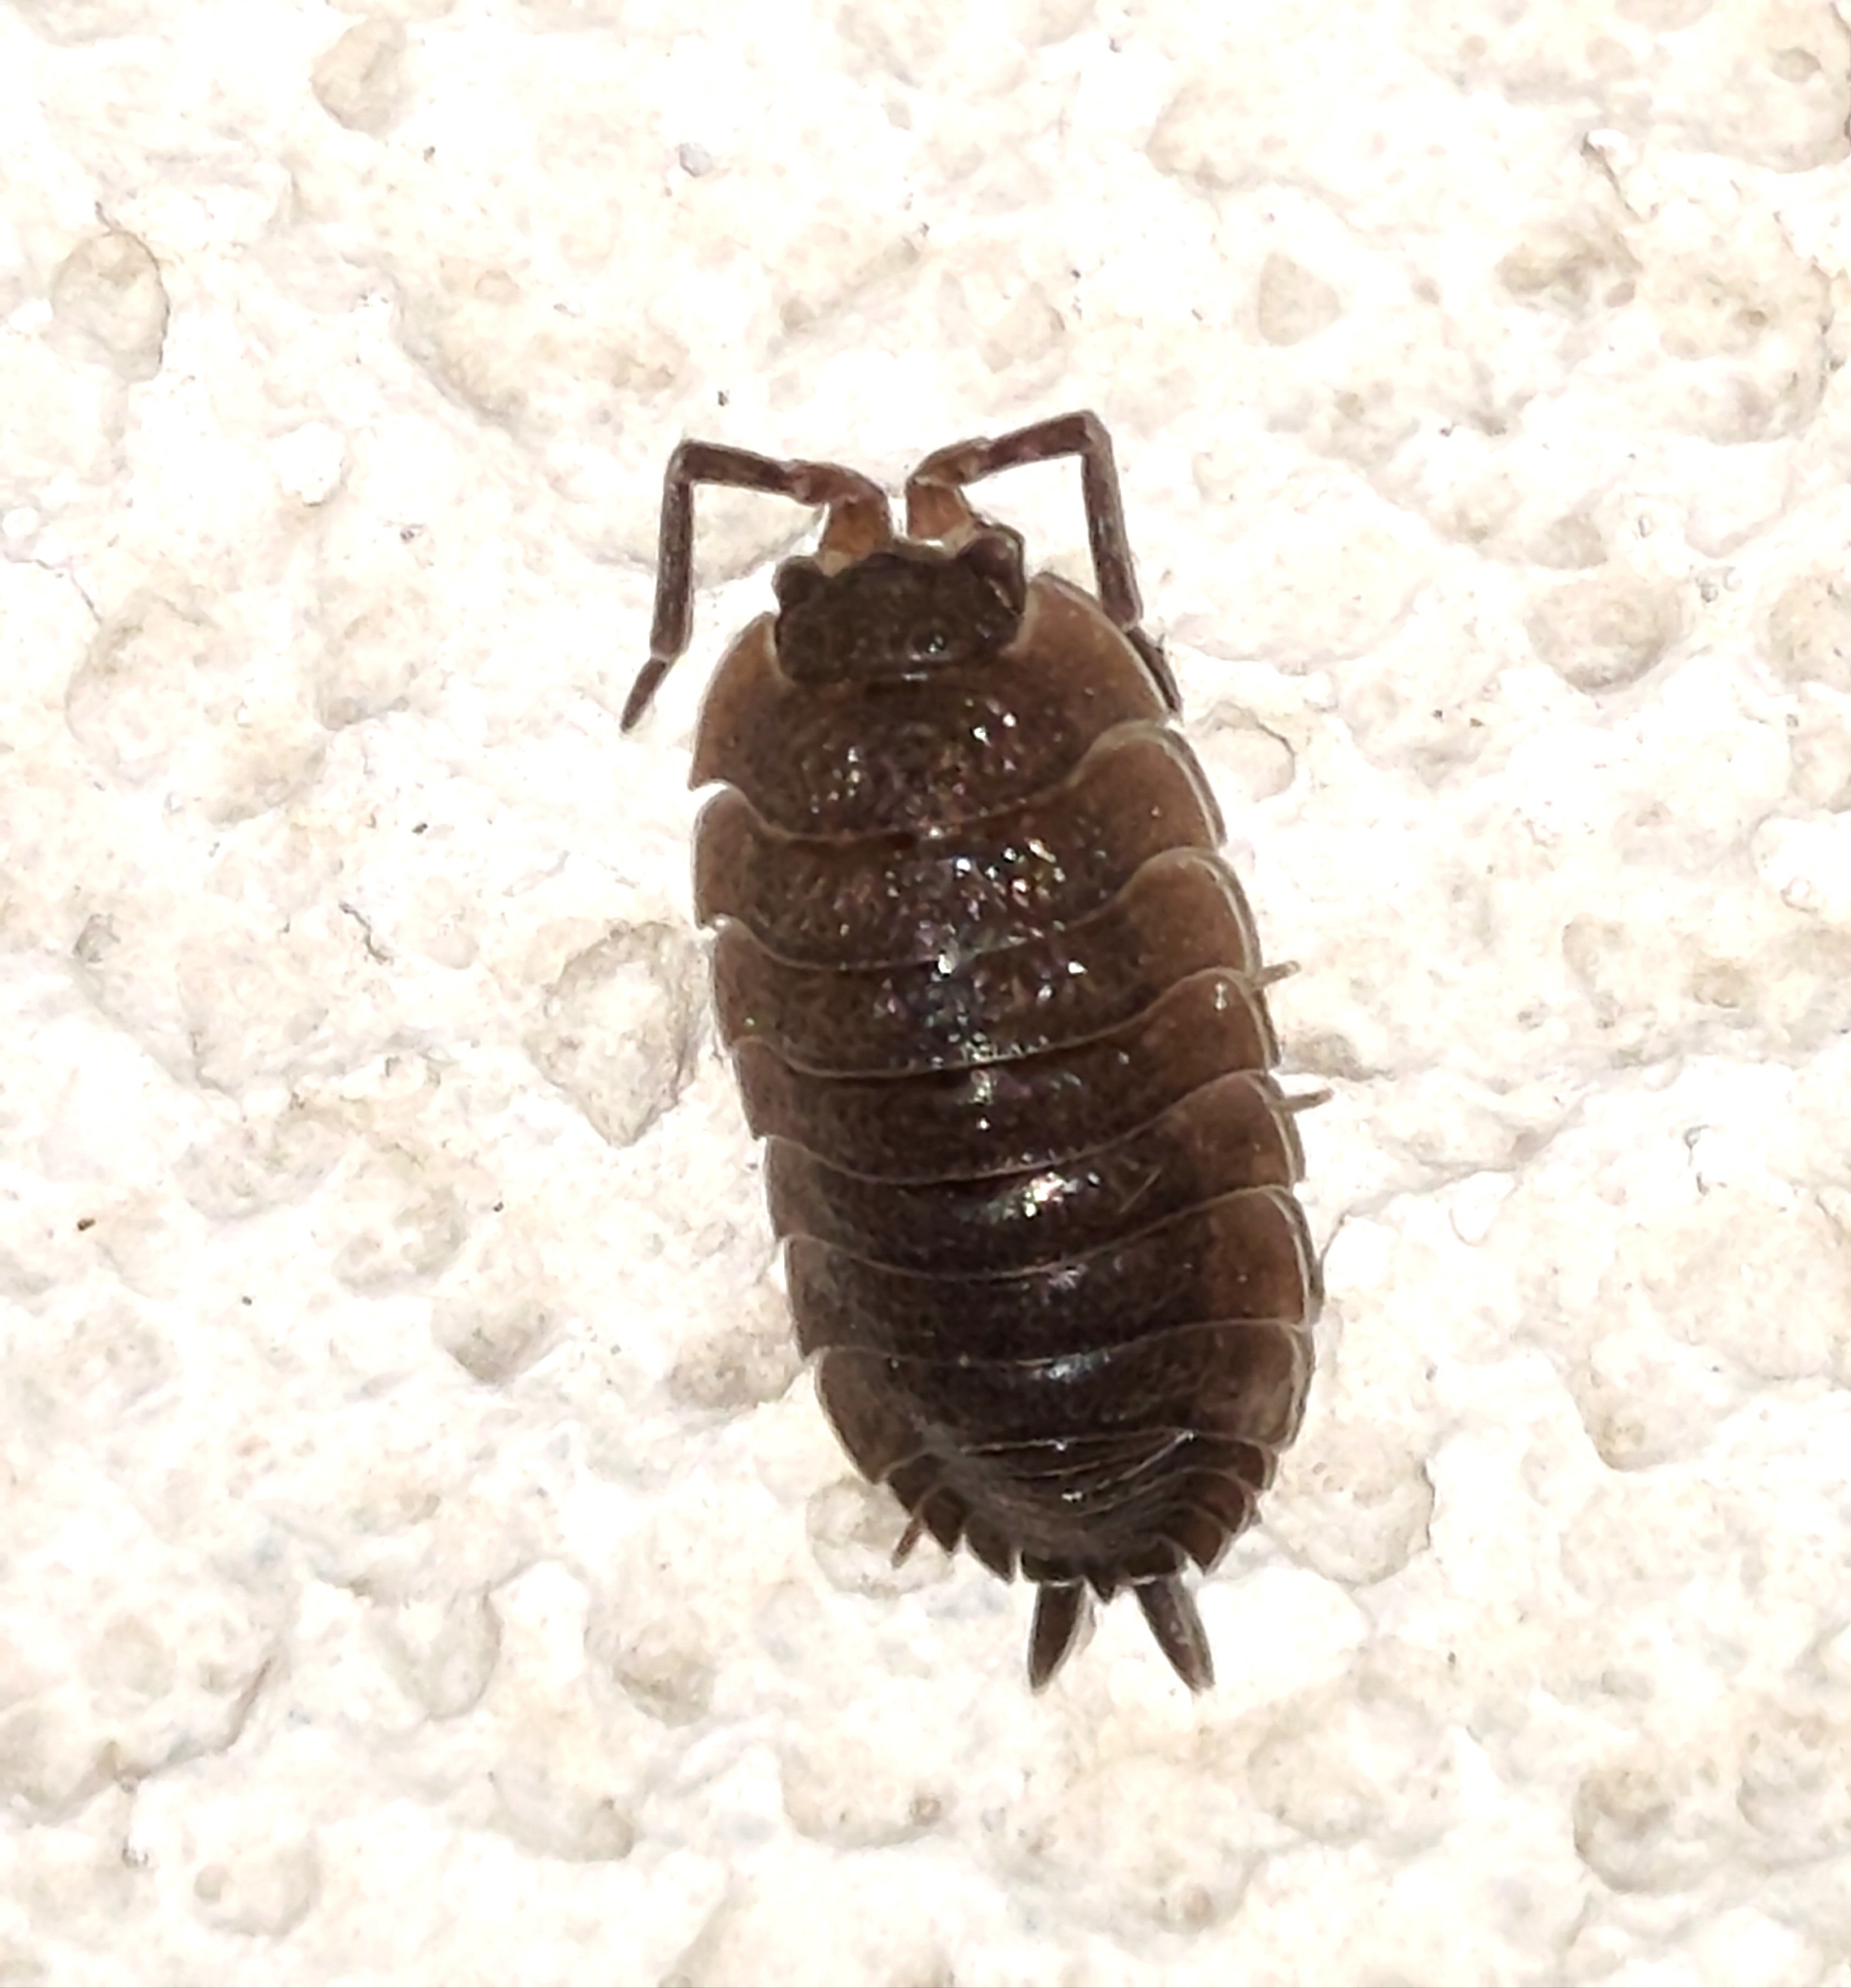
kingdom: Animalia
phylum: Arthropoda
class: Malacostraca
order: Isopoda
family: Porcellionidae
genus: Porcellio
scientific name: Porcellio scaber
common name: Common rough woodlouse
